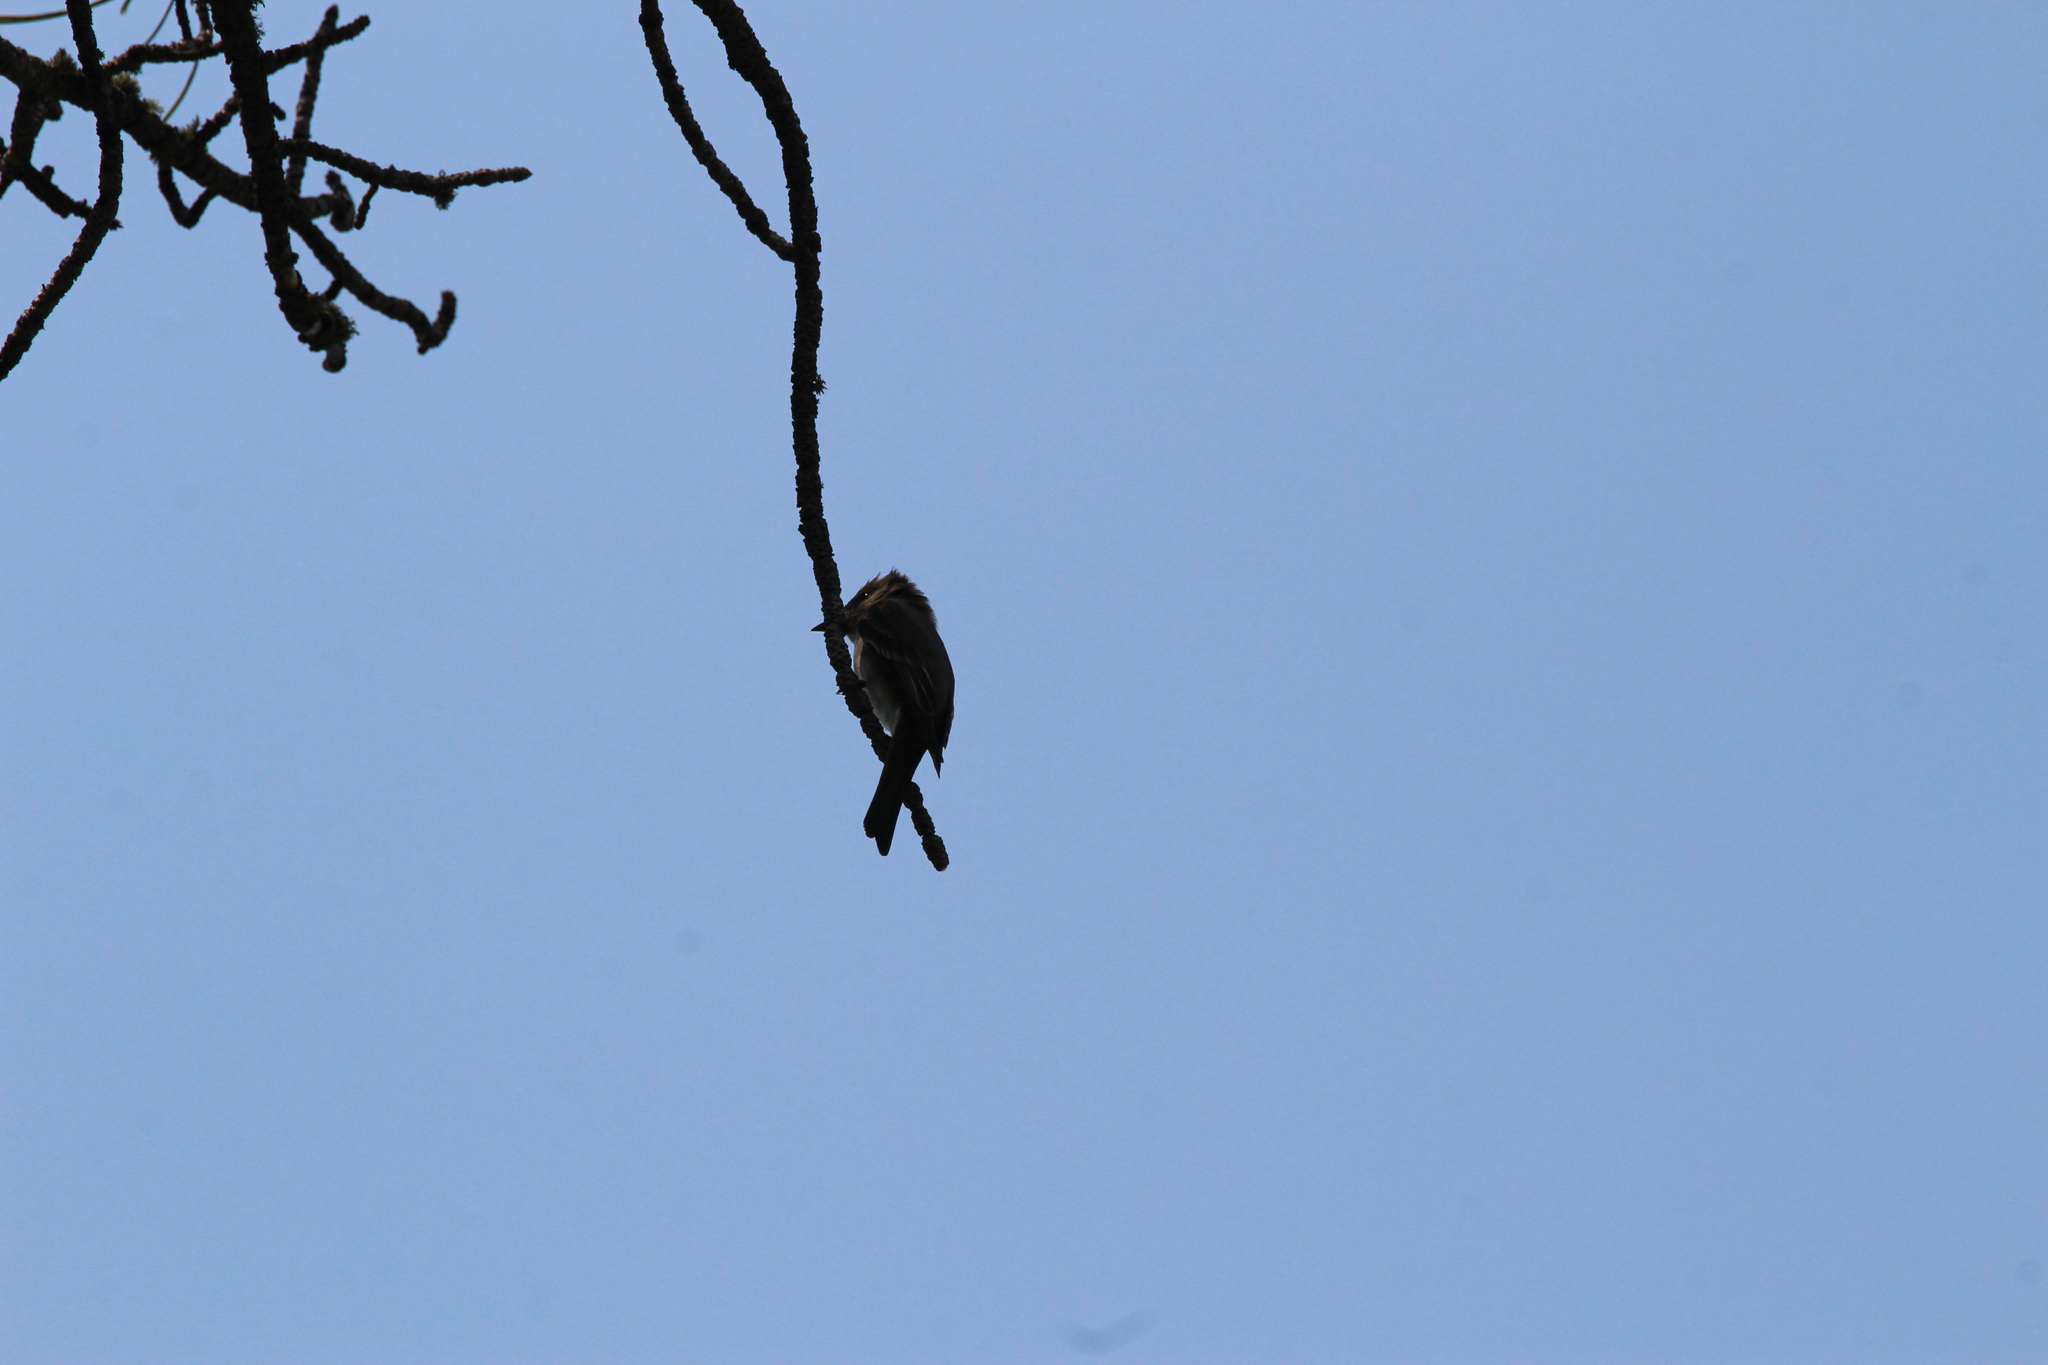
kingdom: Animalia
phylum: Chordata
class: Aves
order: Passeriformes
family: Tyrannidae
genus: Contopus
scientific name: Contopus sordidulus
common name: Western wood-pewee
